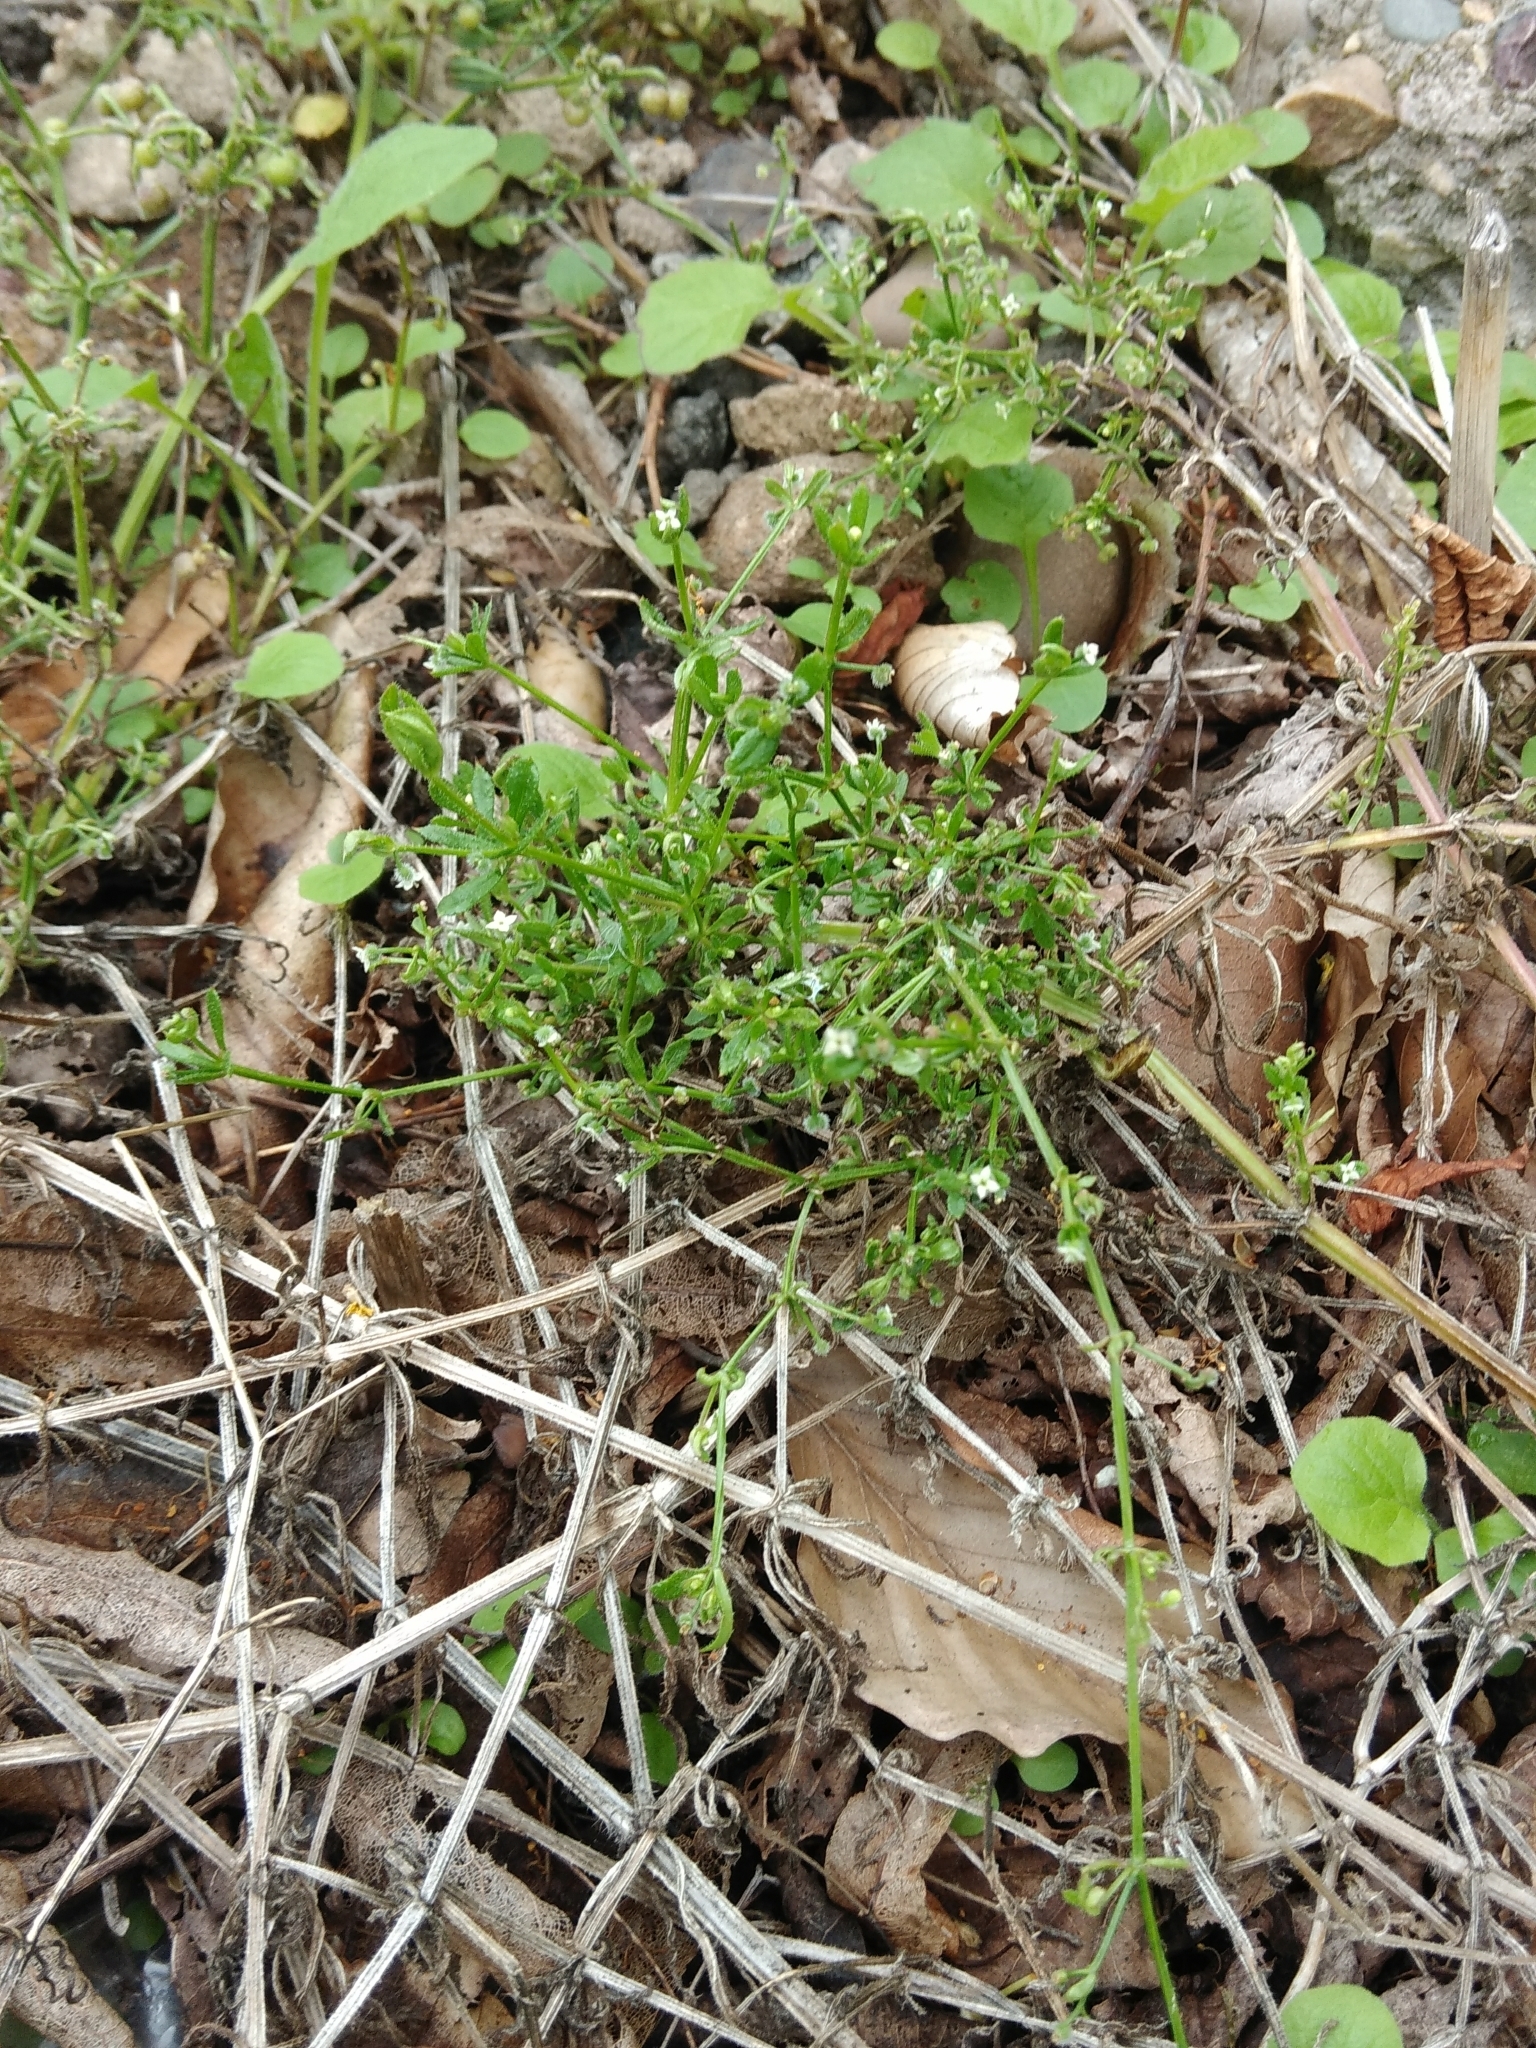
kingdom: Plantae
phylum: Tracheophyta
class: Magnoliopsida
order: Gentianales
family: Rubiaceae
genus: Galium
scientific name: Galium aparine
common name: Cleavers
